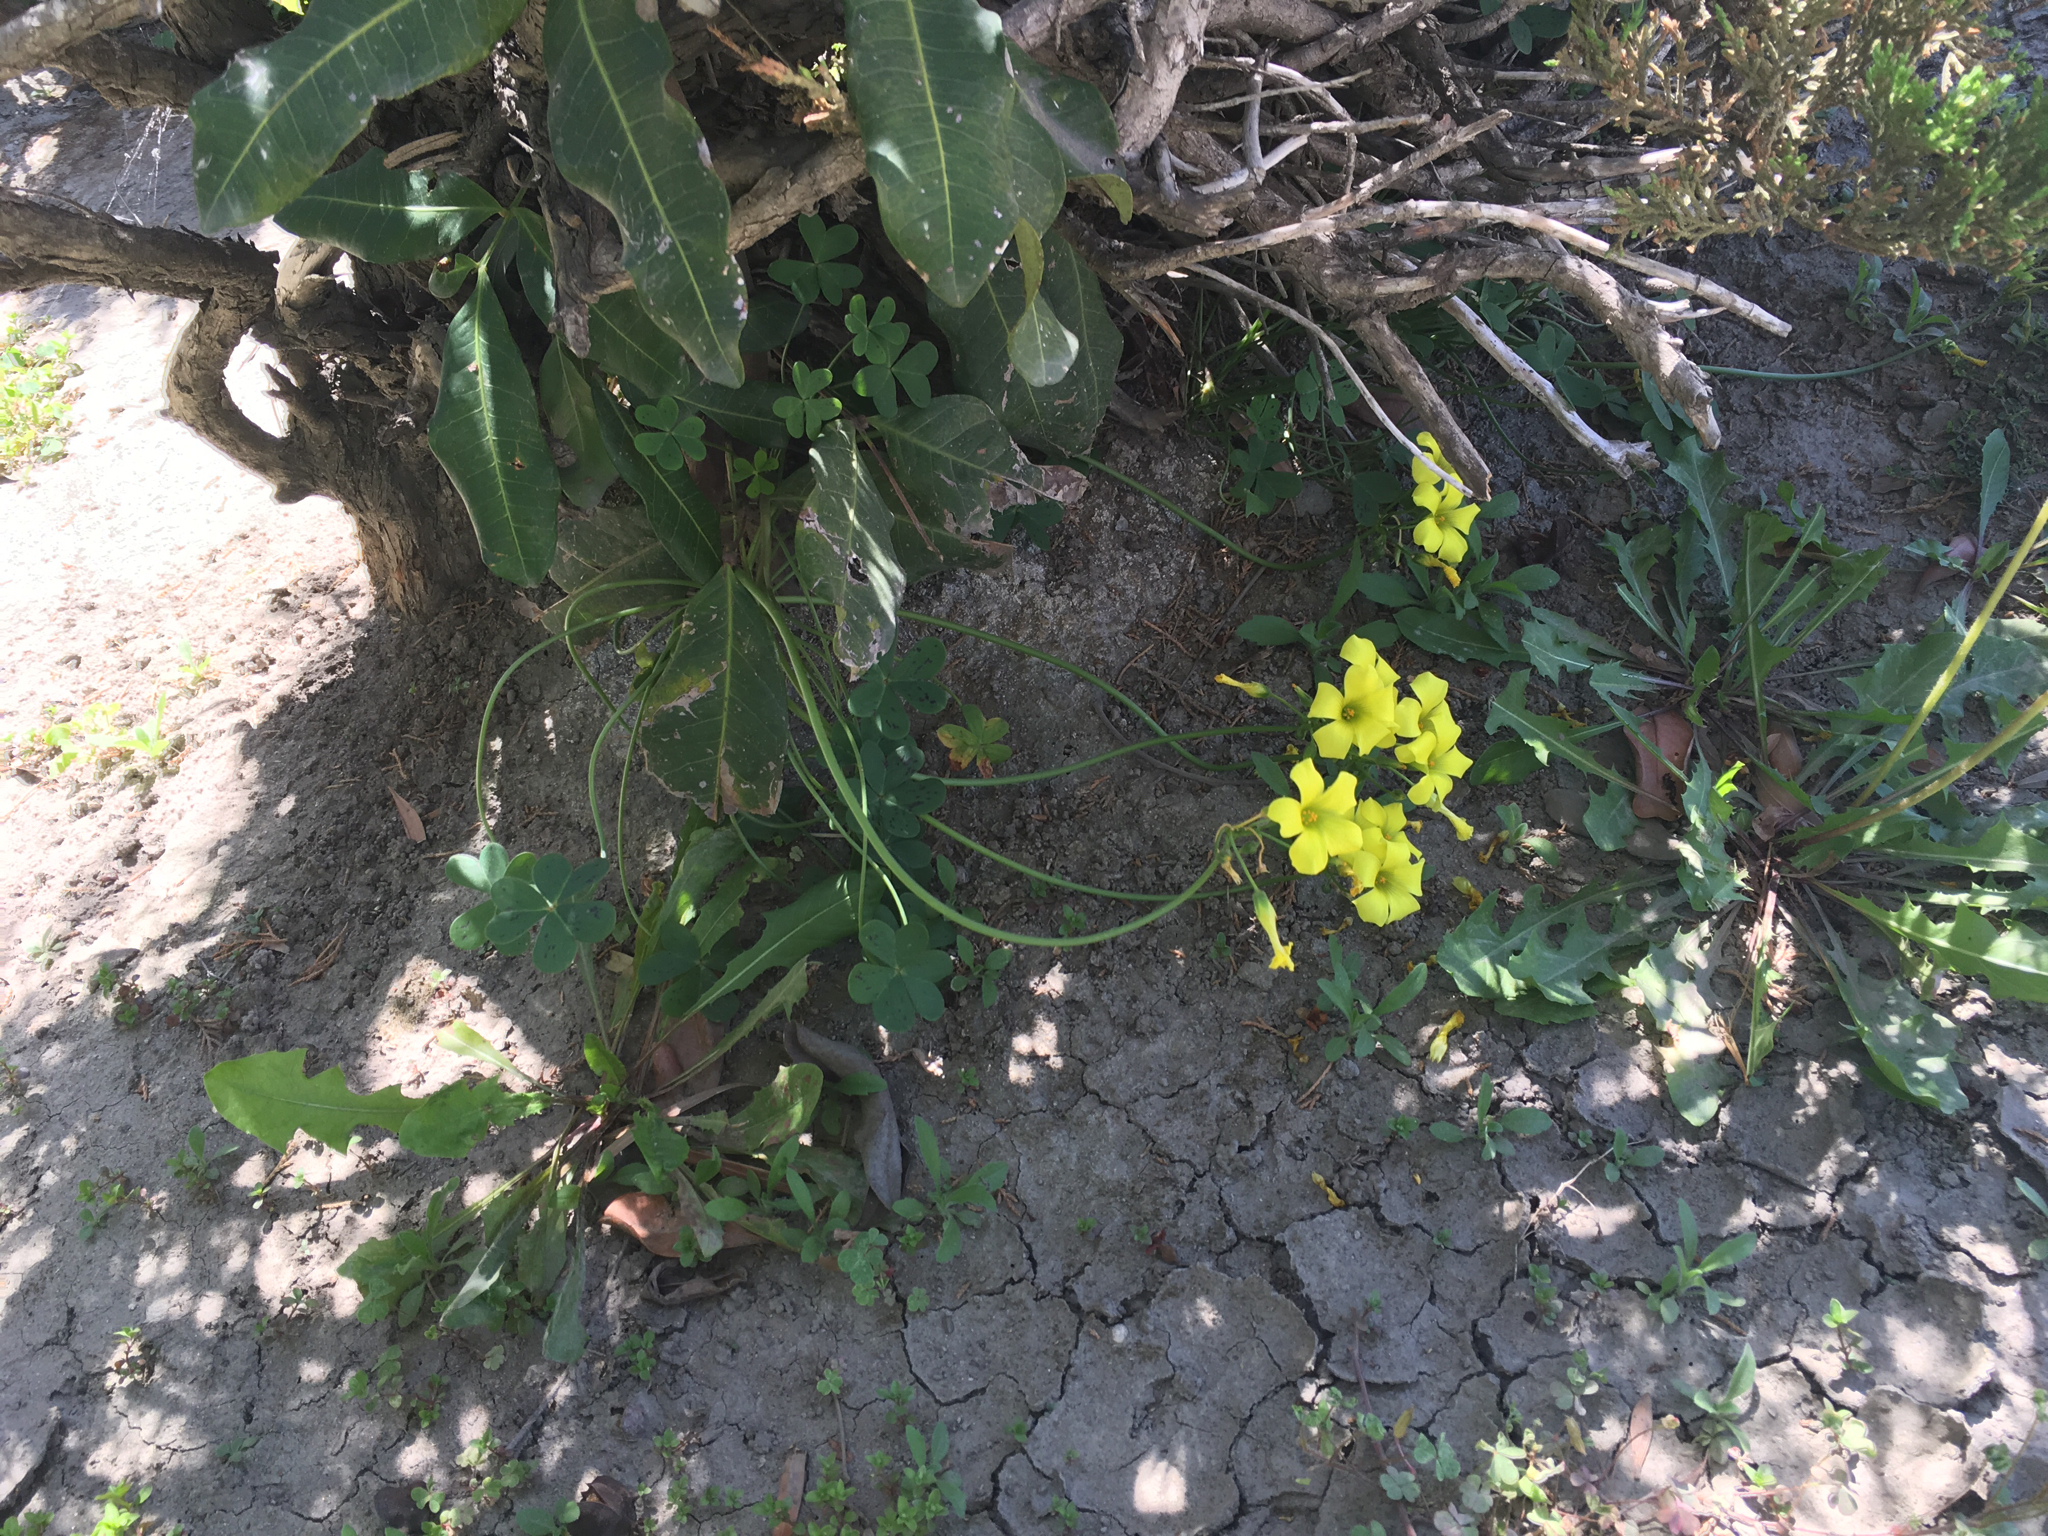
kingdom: Plantae
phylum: Tracheophyta
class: Magnoliopsida
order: Oxalidales
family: Oxalidaceae
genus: Oxalis
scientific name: Oxalis pes-caprae
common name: Bermuda-buttercup
